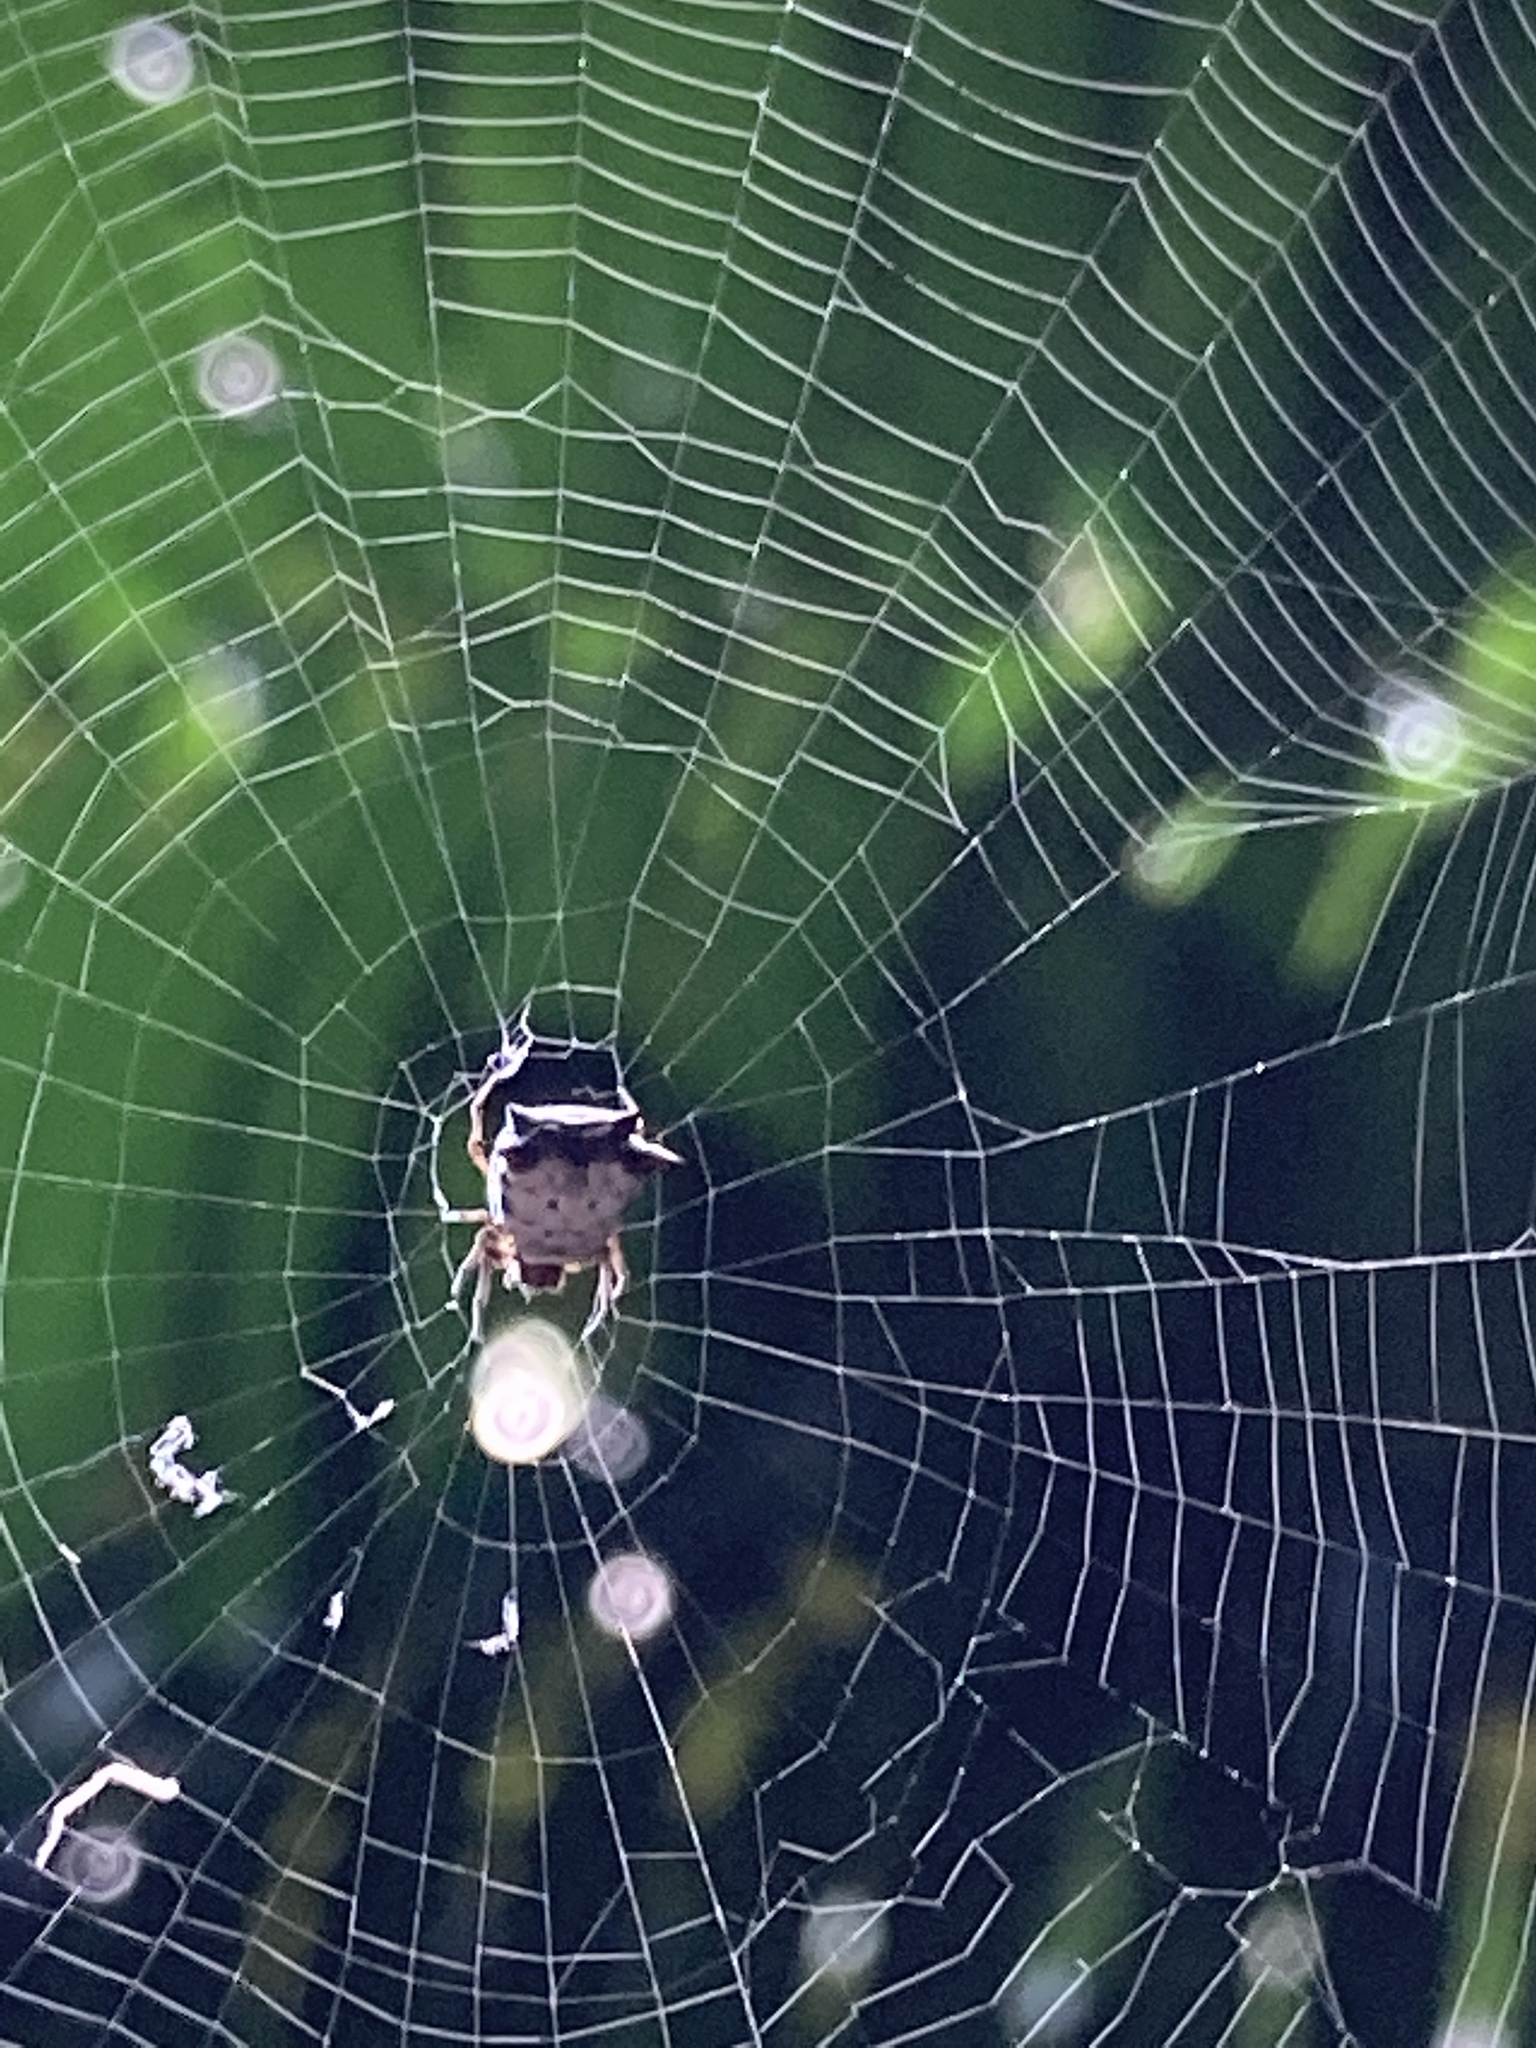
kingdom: Animalia
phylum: Arthropoda
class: Arachnida
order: Araneae
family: Araneidae
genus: Micrathena
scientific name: Micrathena saccata
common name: Orb weavers
